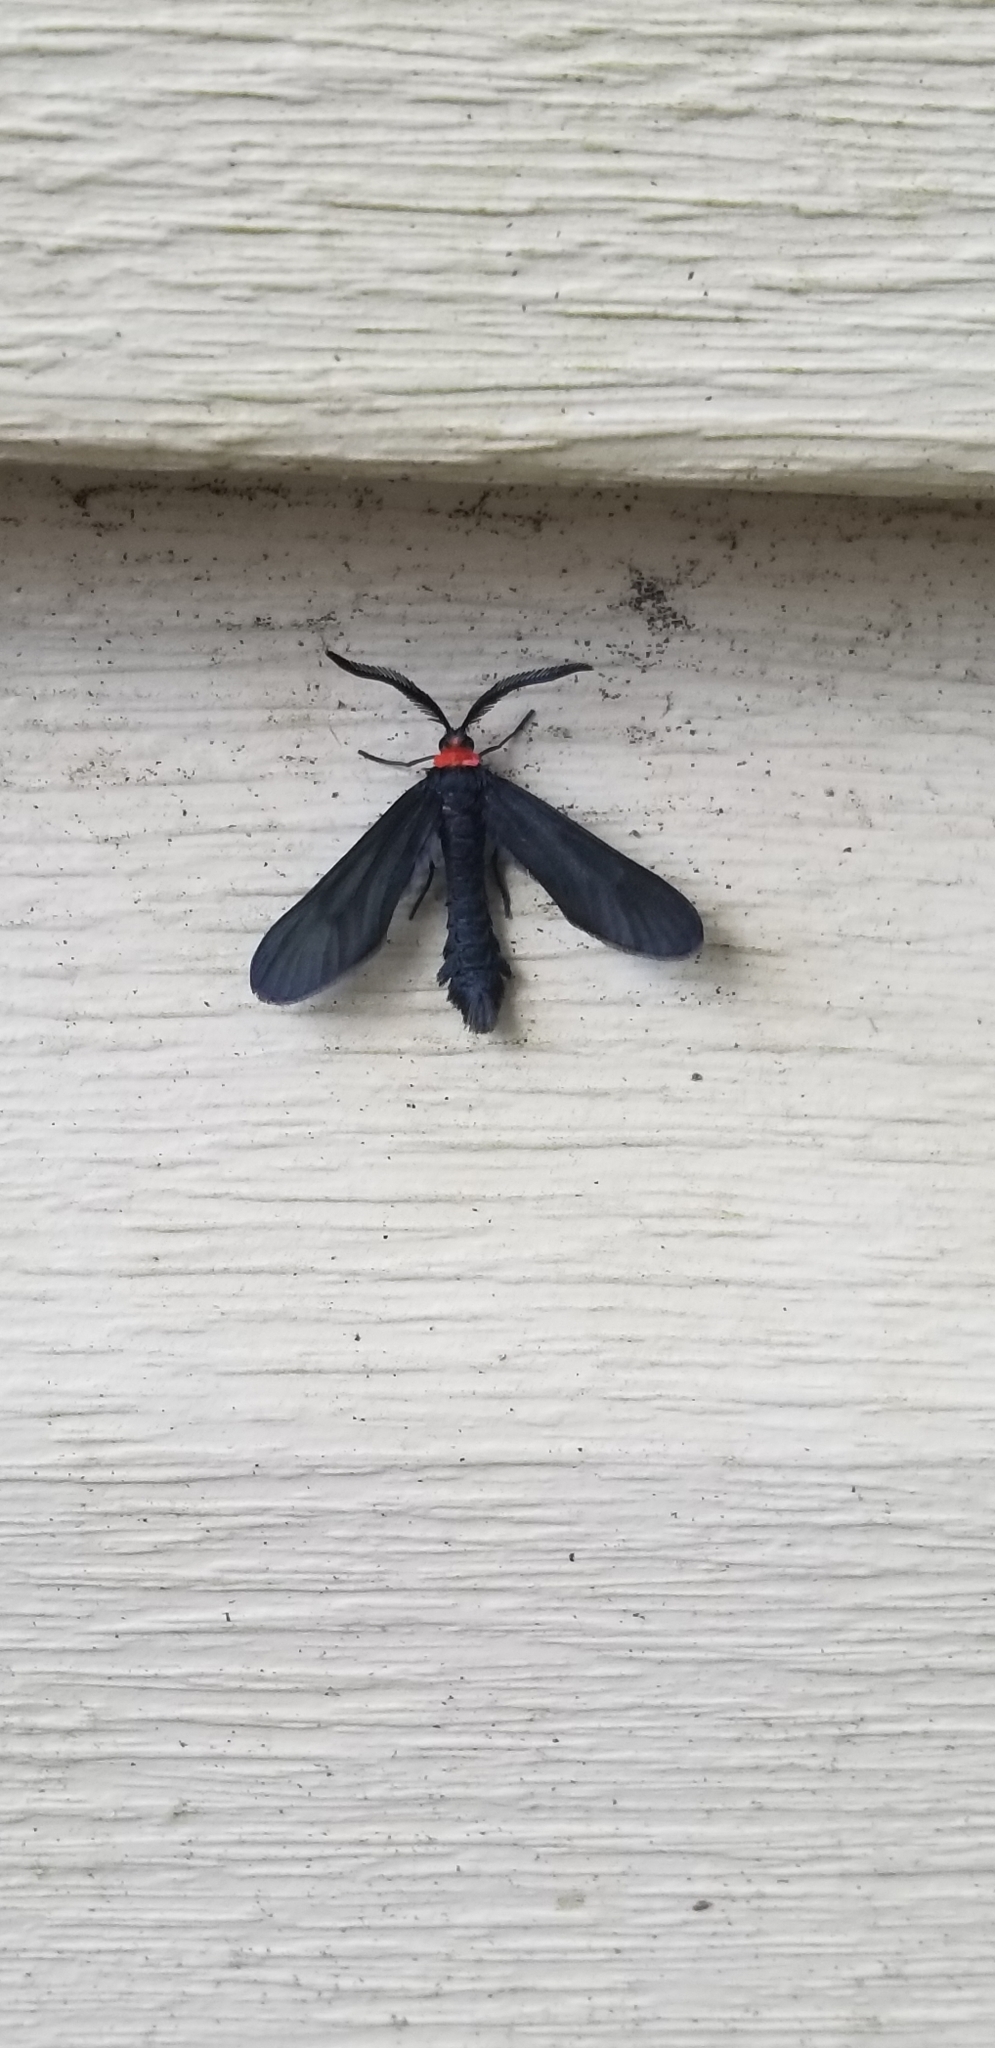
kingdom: Animalia
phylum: Arthropoda
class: Insecta
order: Lepidoptera
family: Zygaenidae
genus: Harrisina
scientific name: Harrisina americana
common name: Grapeleaf skeletonizer moth
